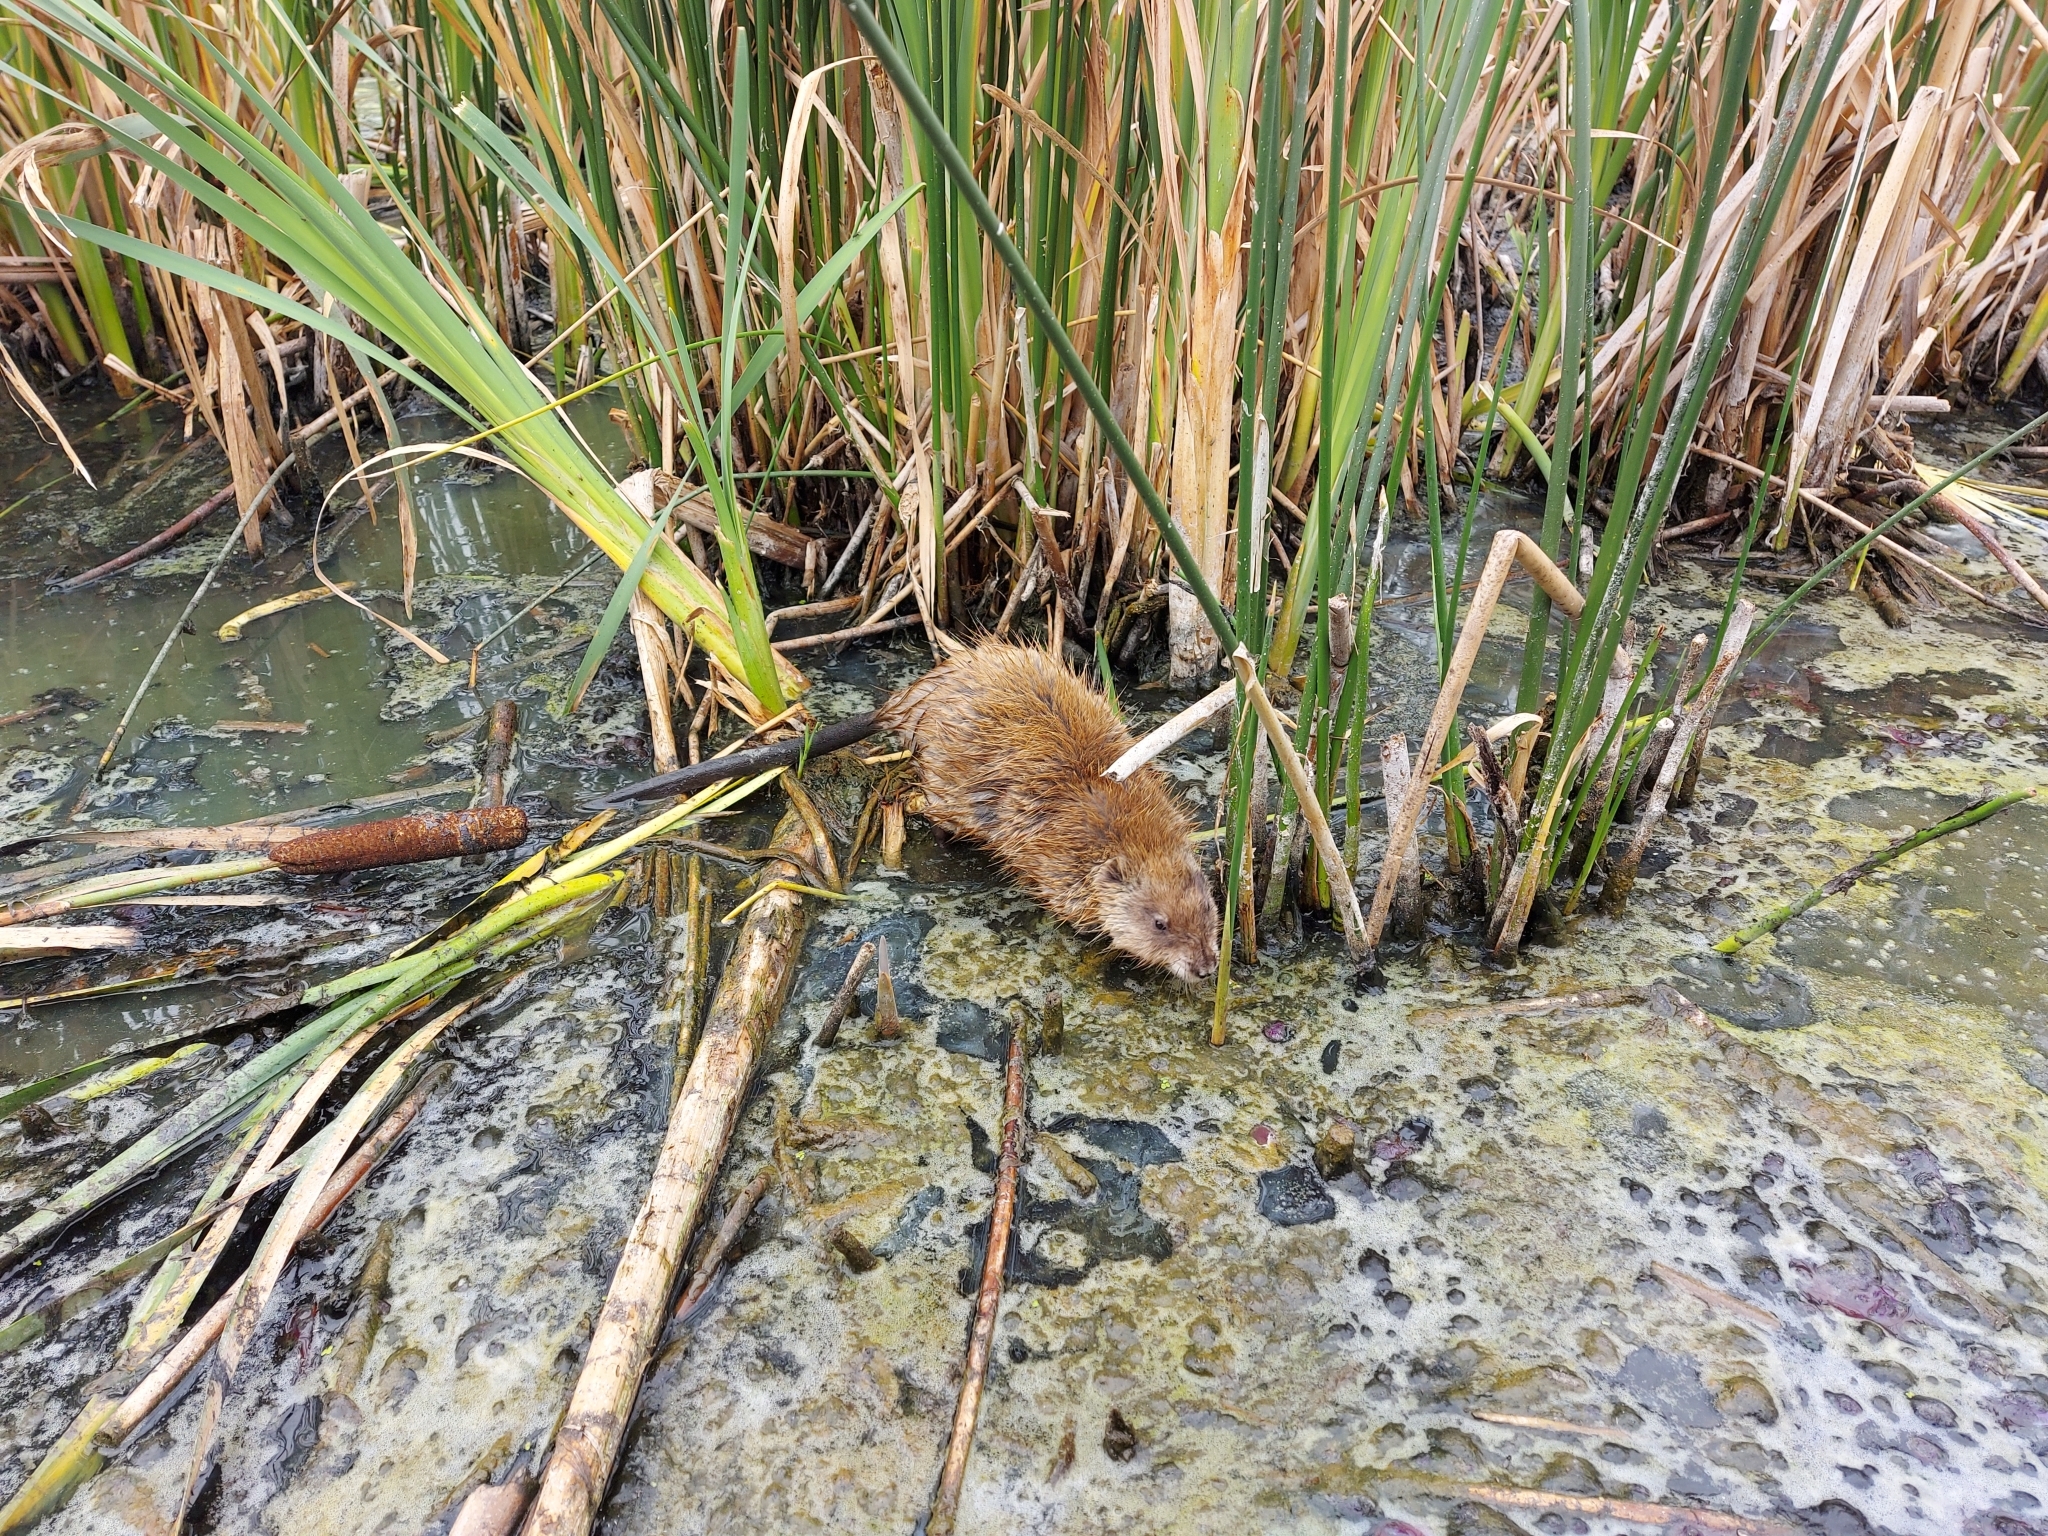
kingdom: Animalia
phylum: Chordata
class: Mammalia
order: Rodentia
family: Cricetidae
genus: Ondatra
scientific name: Ondatra zibethicus
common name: Muskrat
